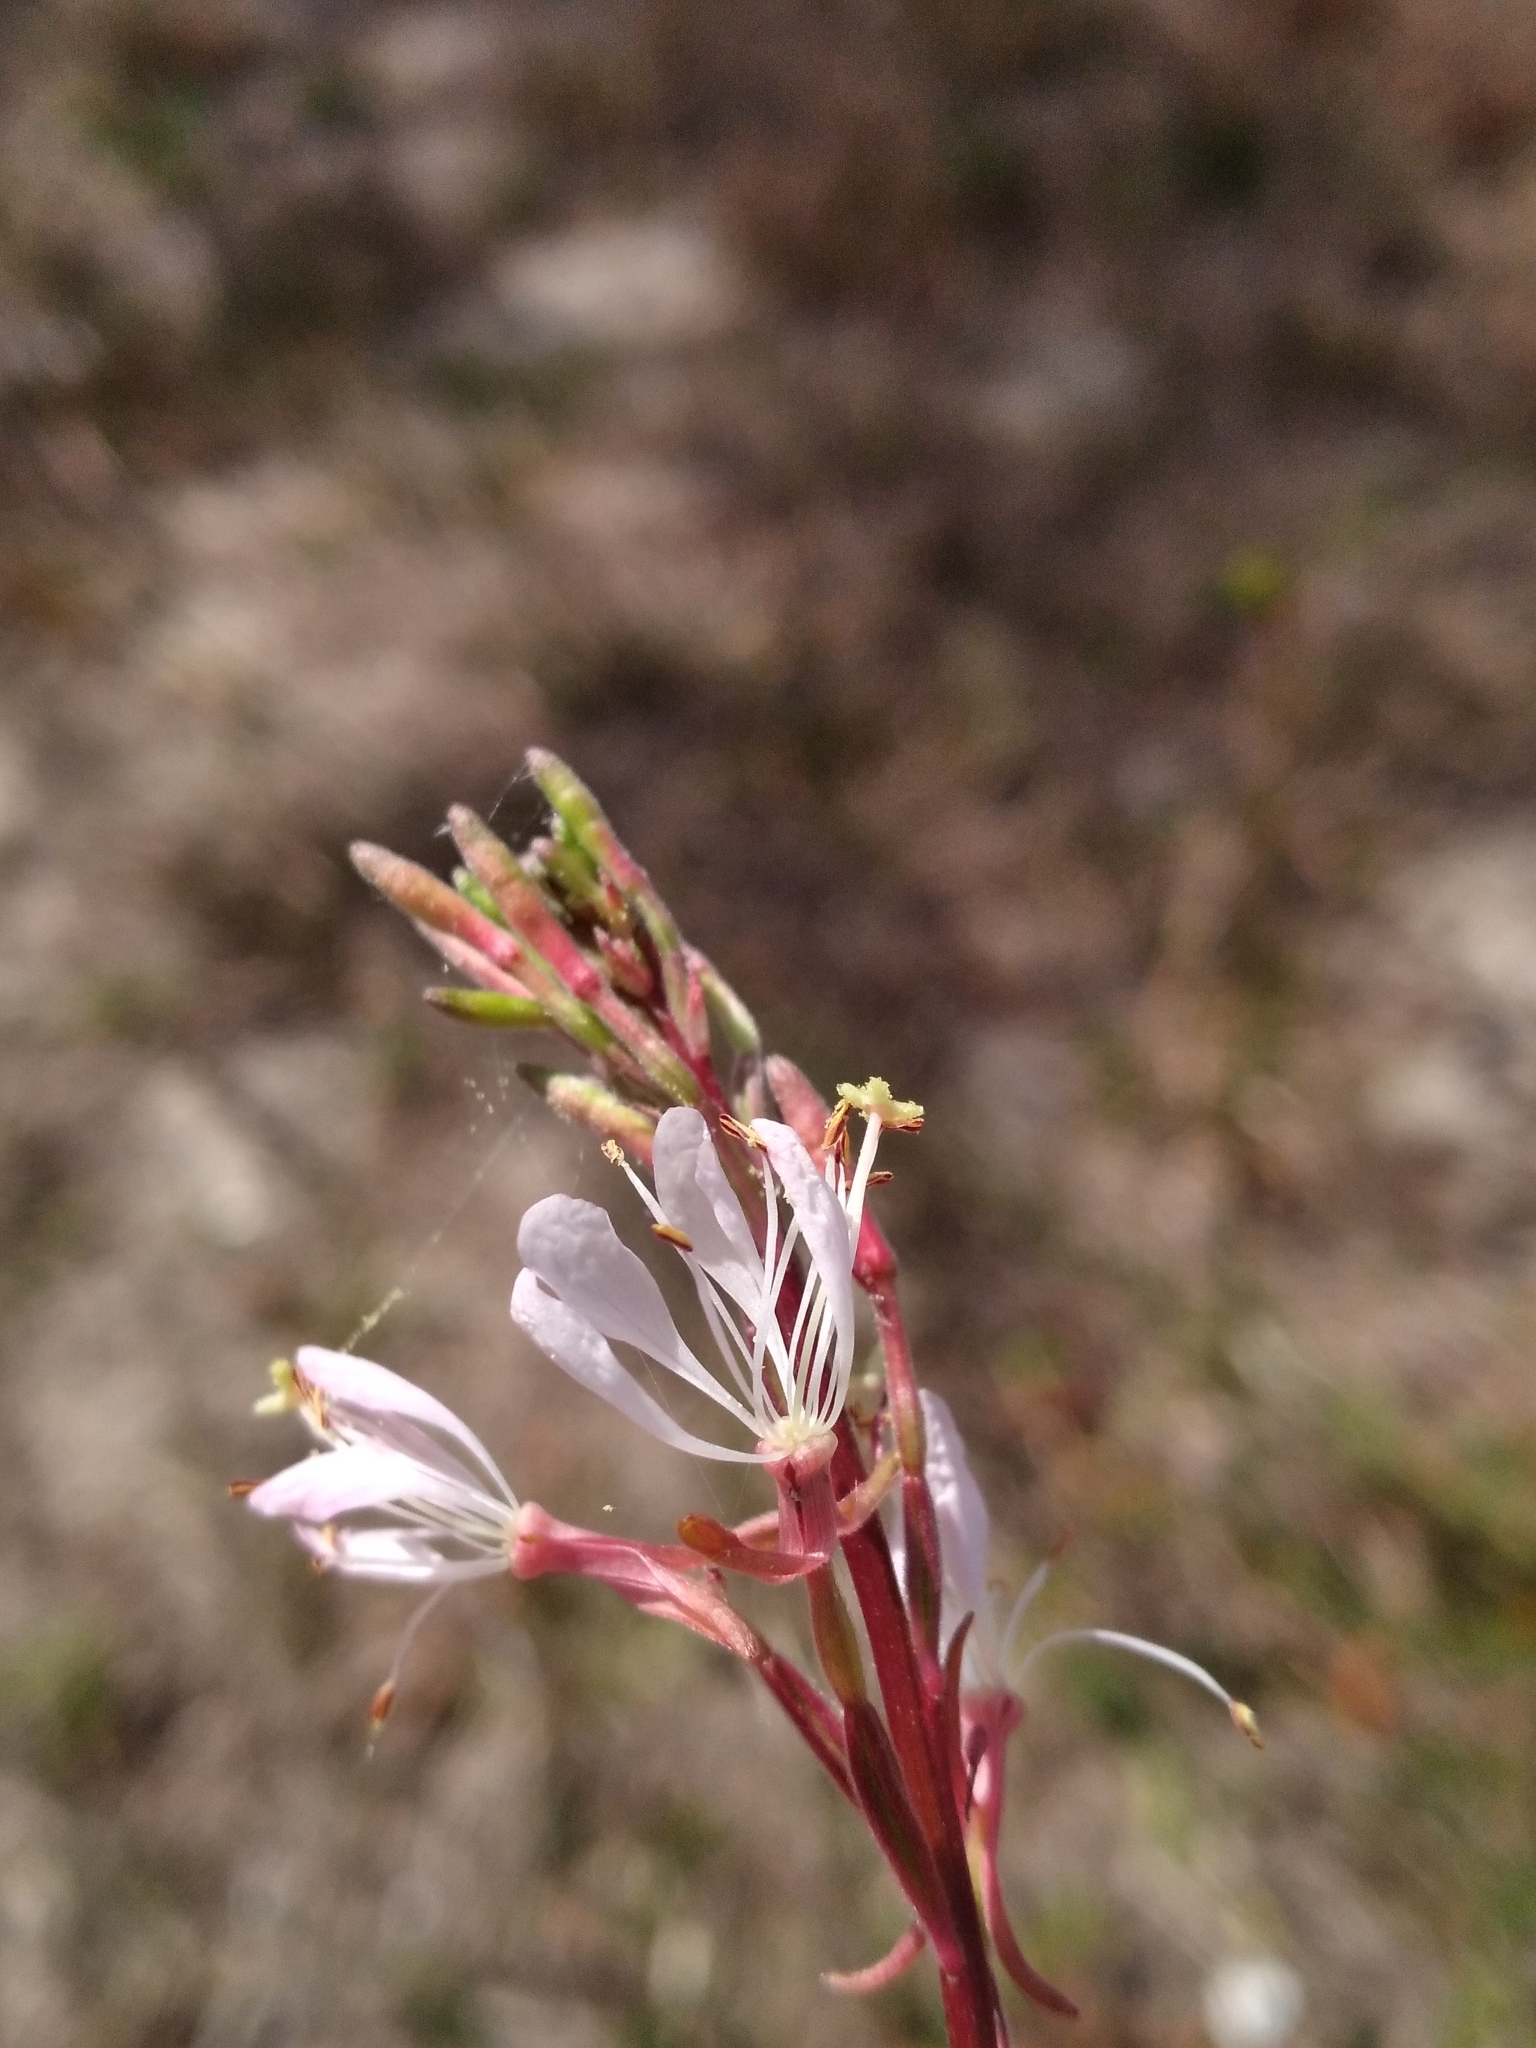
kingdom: Plantae
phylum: Tracheophyta
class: Magnoliopsida
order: Myrtales
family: Onagraceae
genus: Oenothera
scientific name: Oenothera simulans
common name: Southern beeblossom
